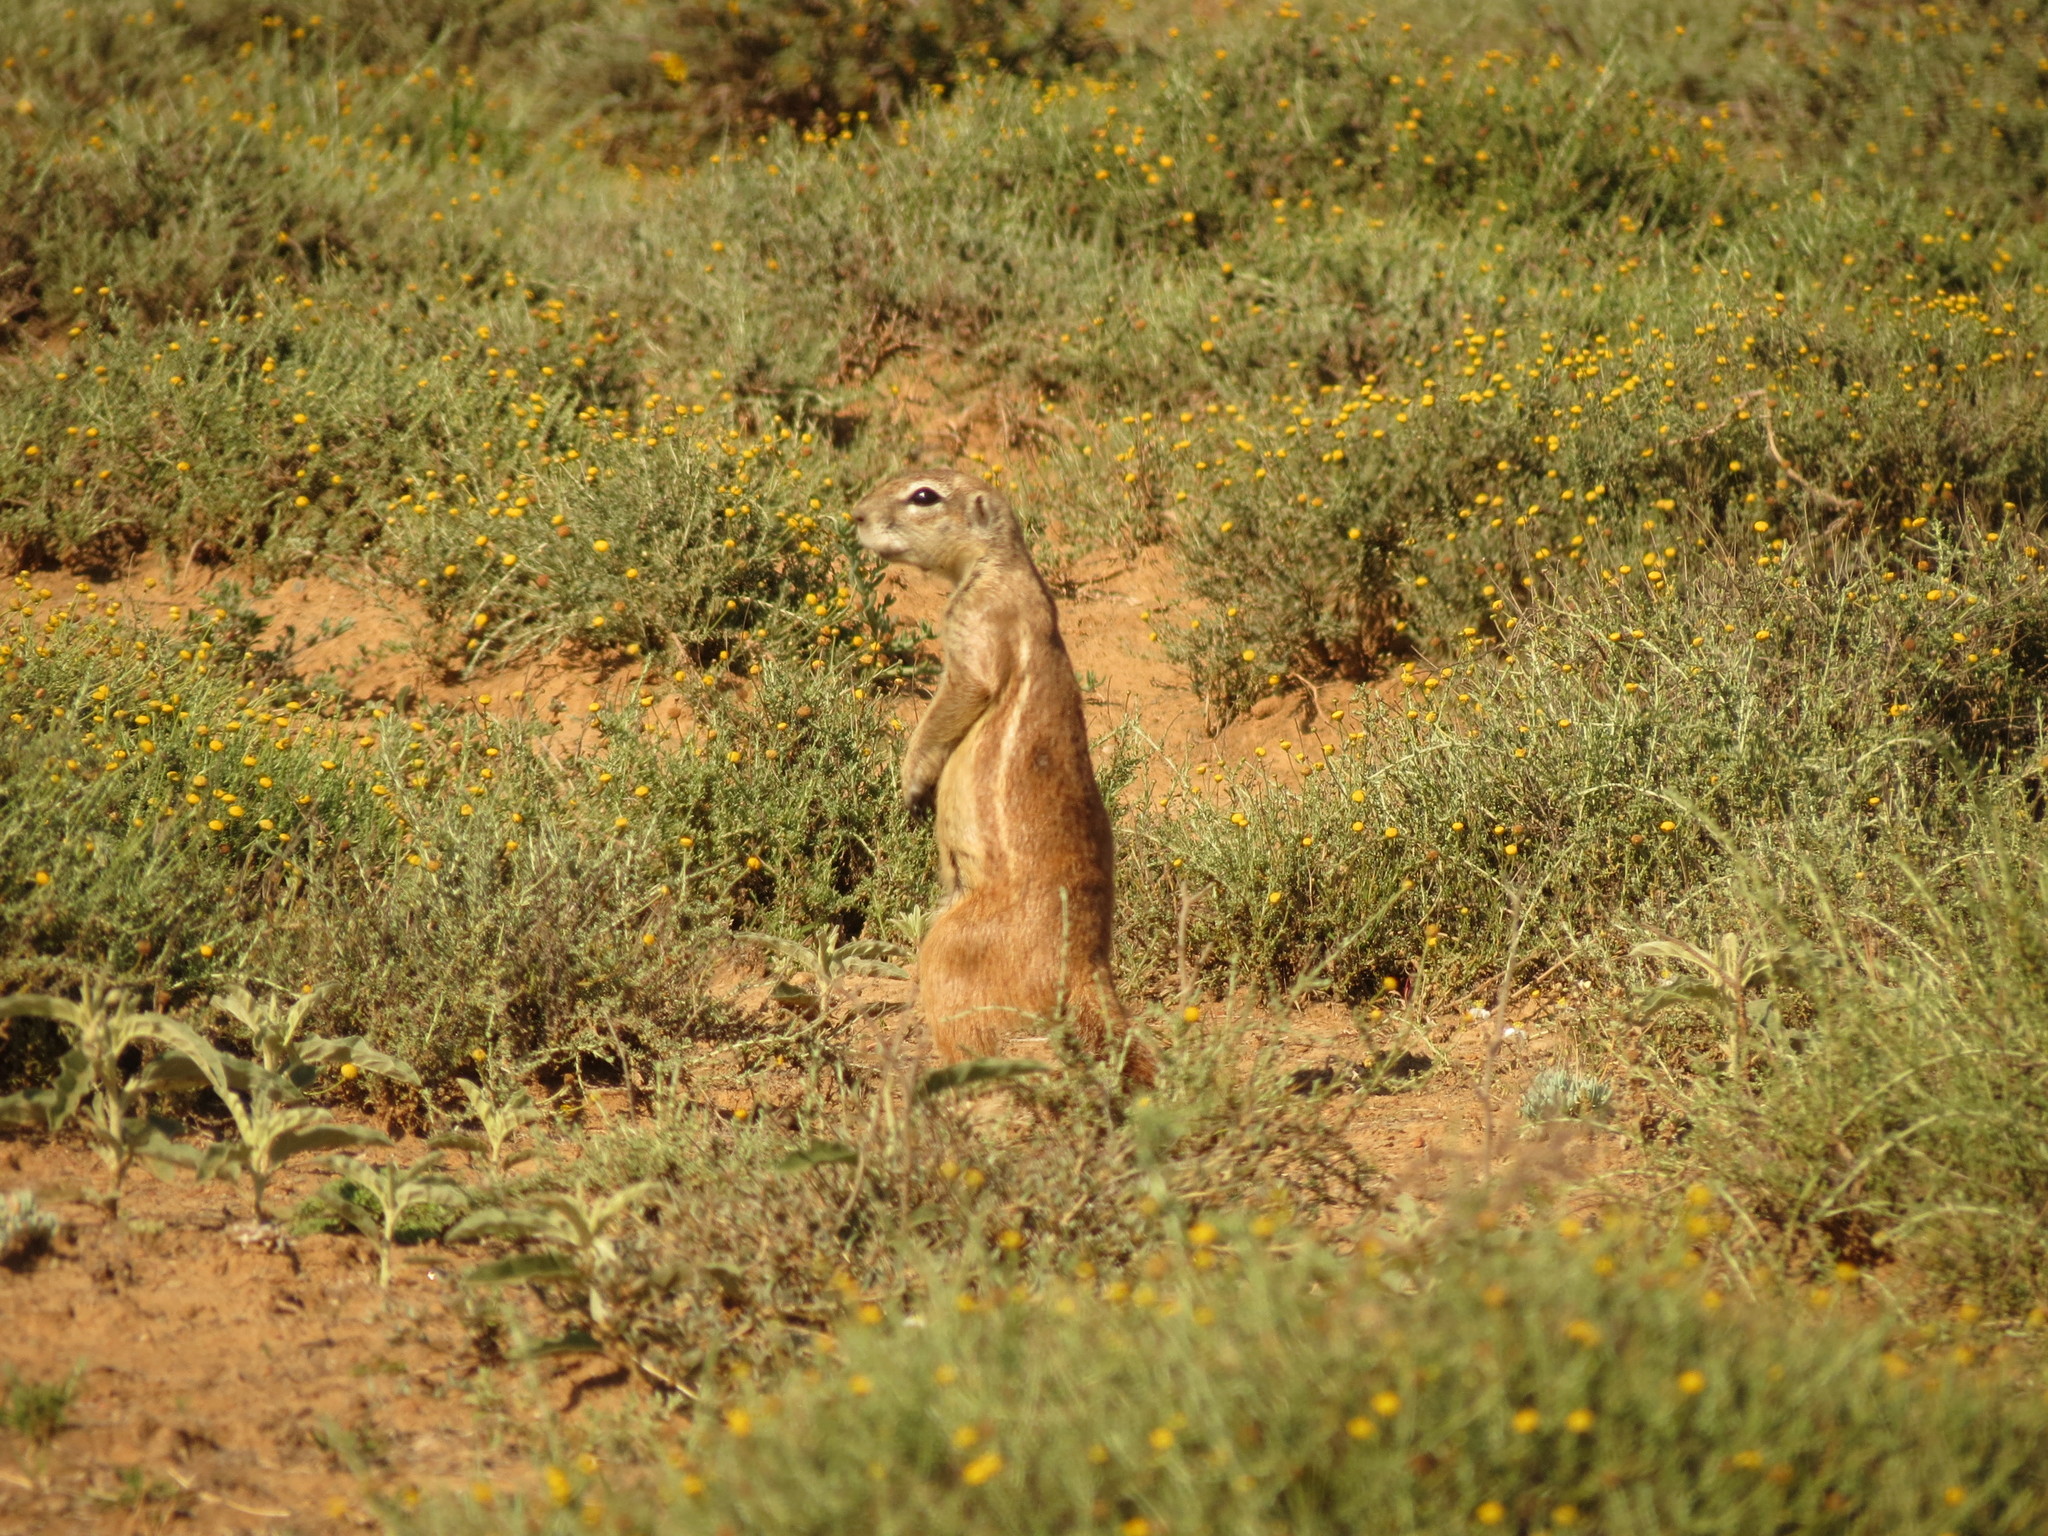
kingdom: Animalia
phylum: Chordata
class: Mammalia
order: Rodentia
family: Sciuridae
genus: Xerus
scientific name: Xerus inauris
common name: South african ground squirrel
